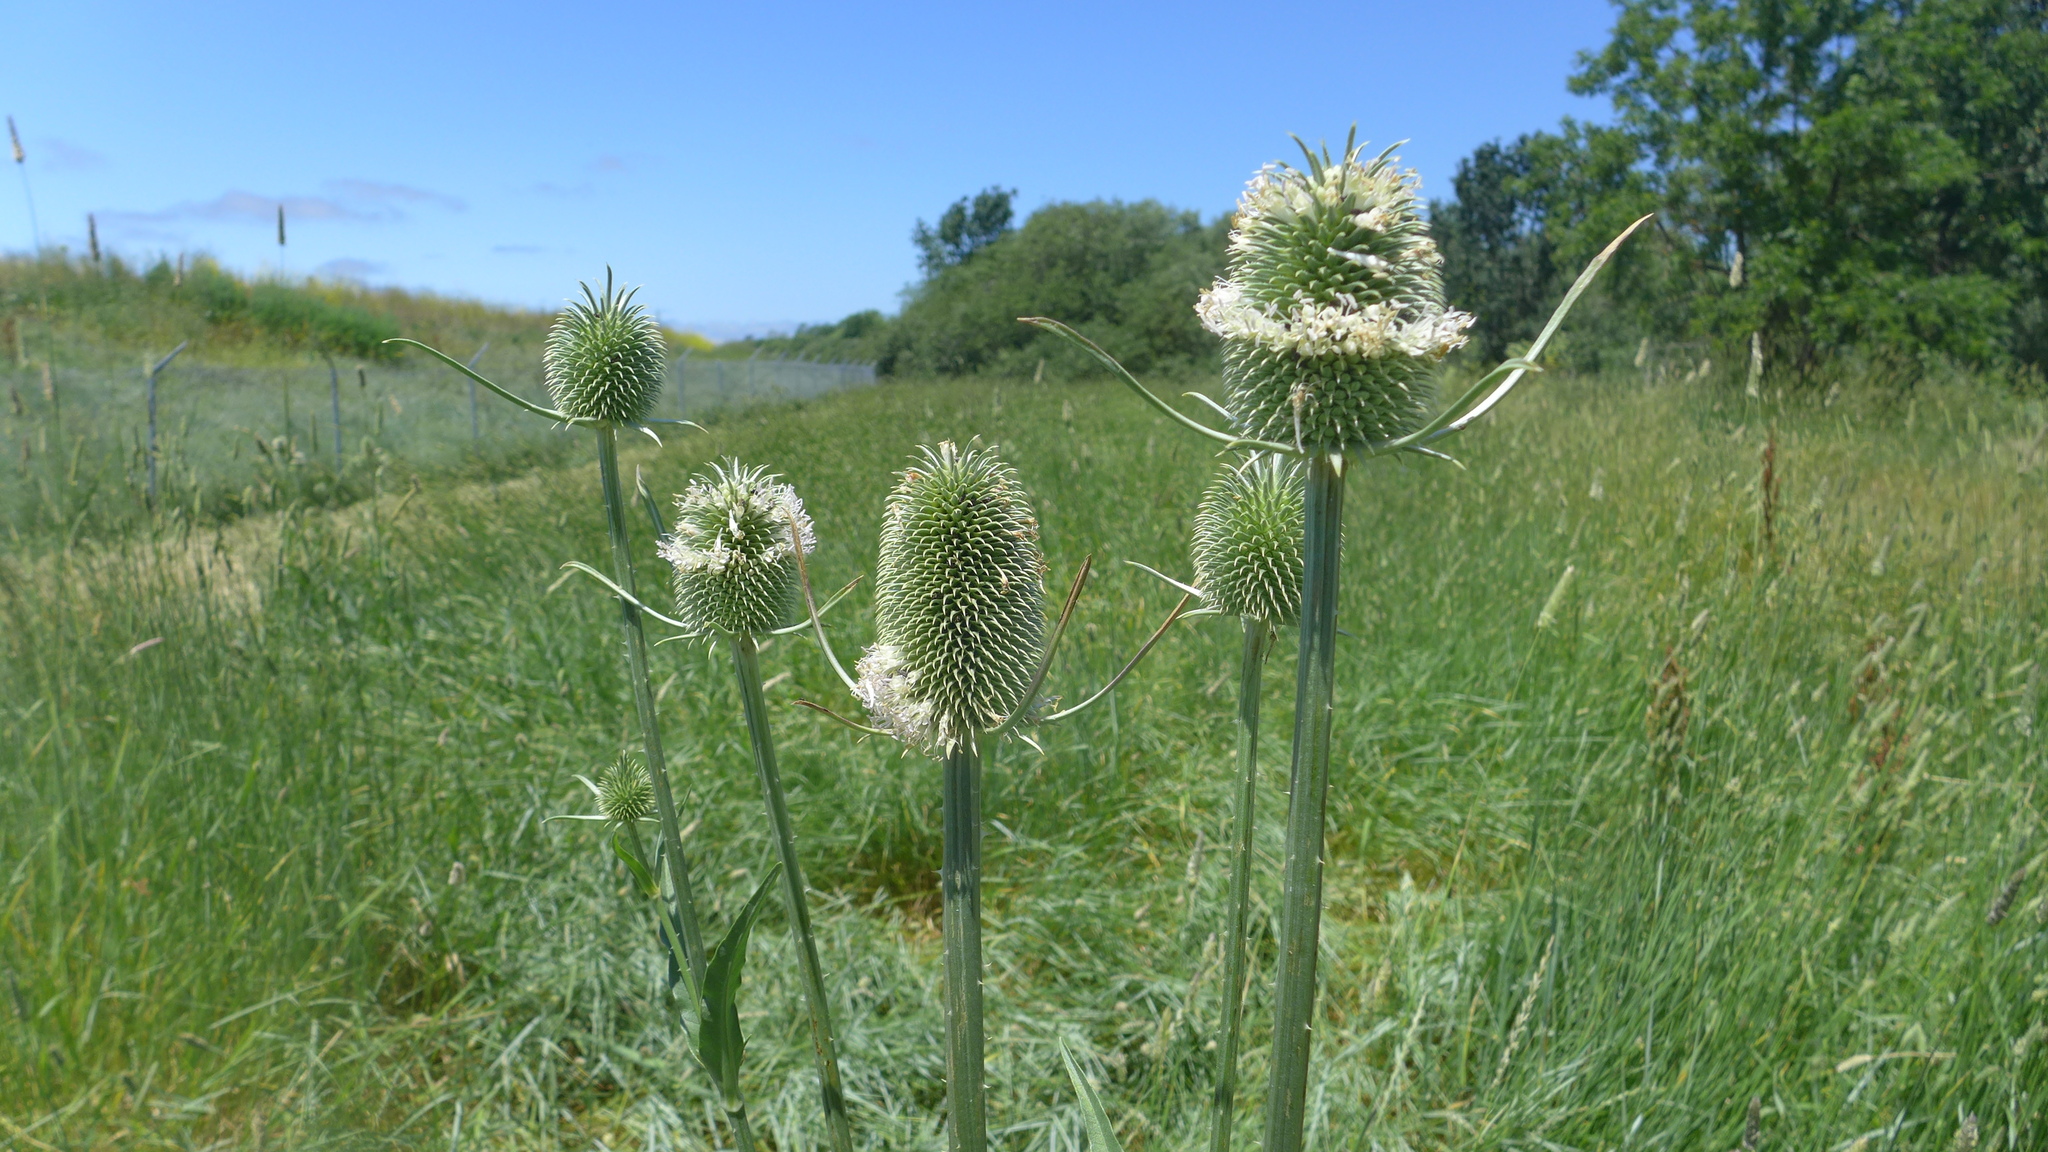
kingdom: Plantae
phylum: Tracheophyta
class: Magnoliopsida
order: Dipsacales
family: Caprifoliaceae
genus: Dipsacus
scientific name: Dipsacus sativus
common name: Fuller's teasel
